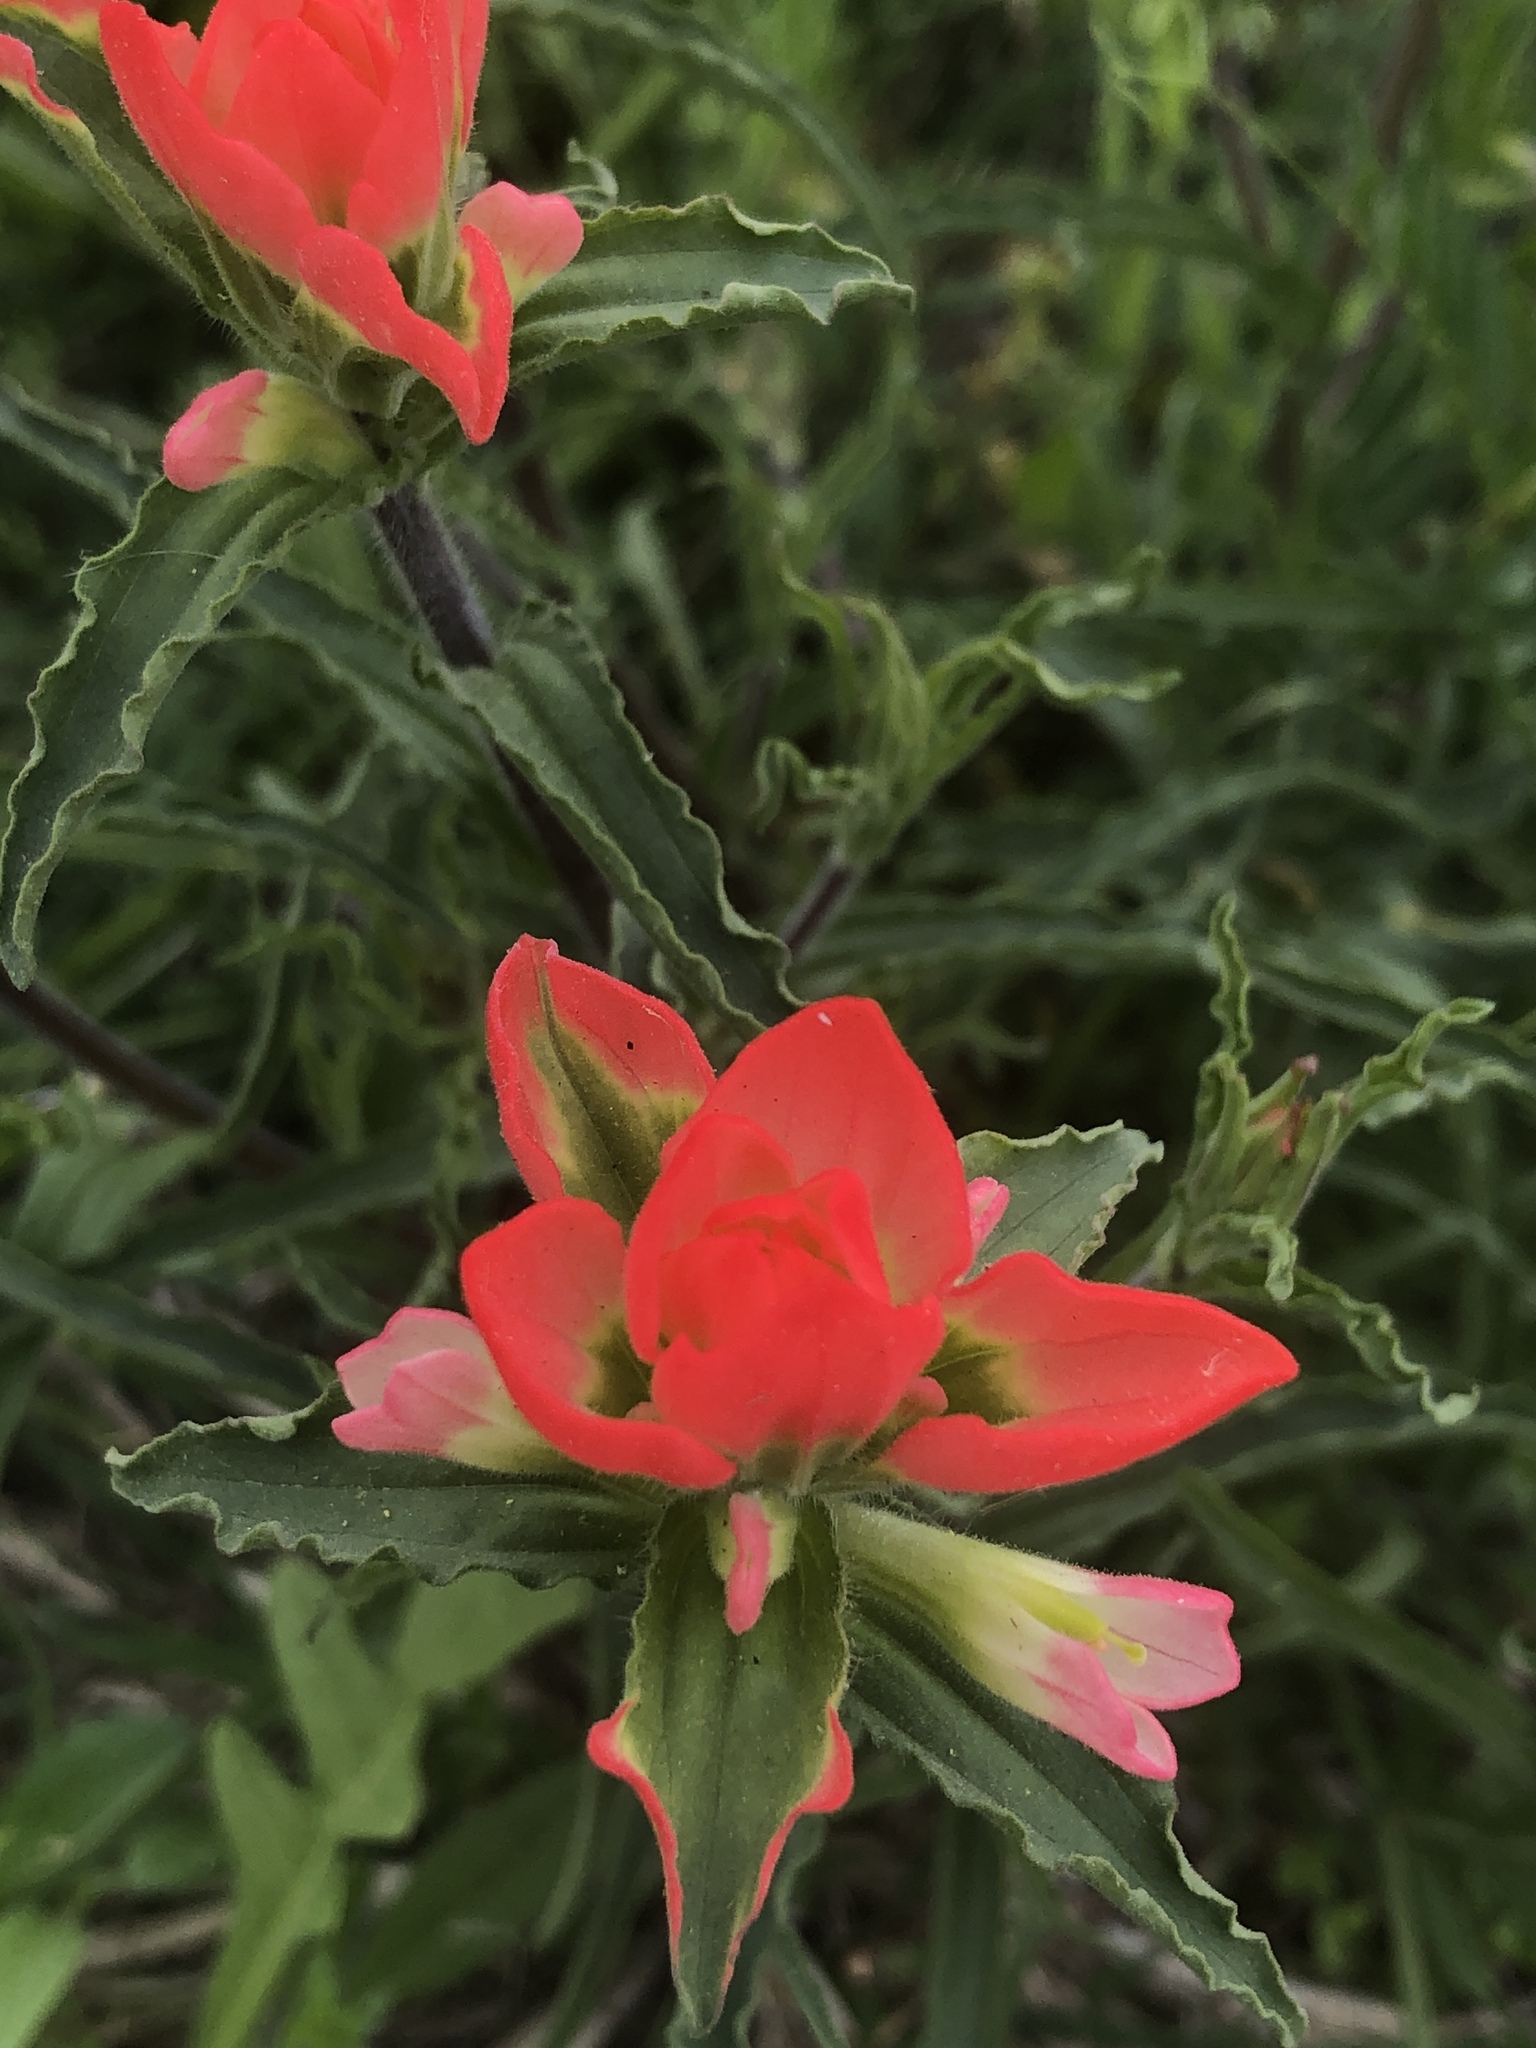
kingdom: Plantae
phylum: Tracheophyta
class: Magnoliopsida
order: Lamiales
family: Orobanchaceae
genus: Castilleja
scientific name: Castilleja indivisa
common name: Texas paintbrush
